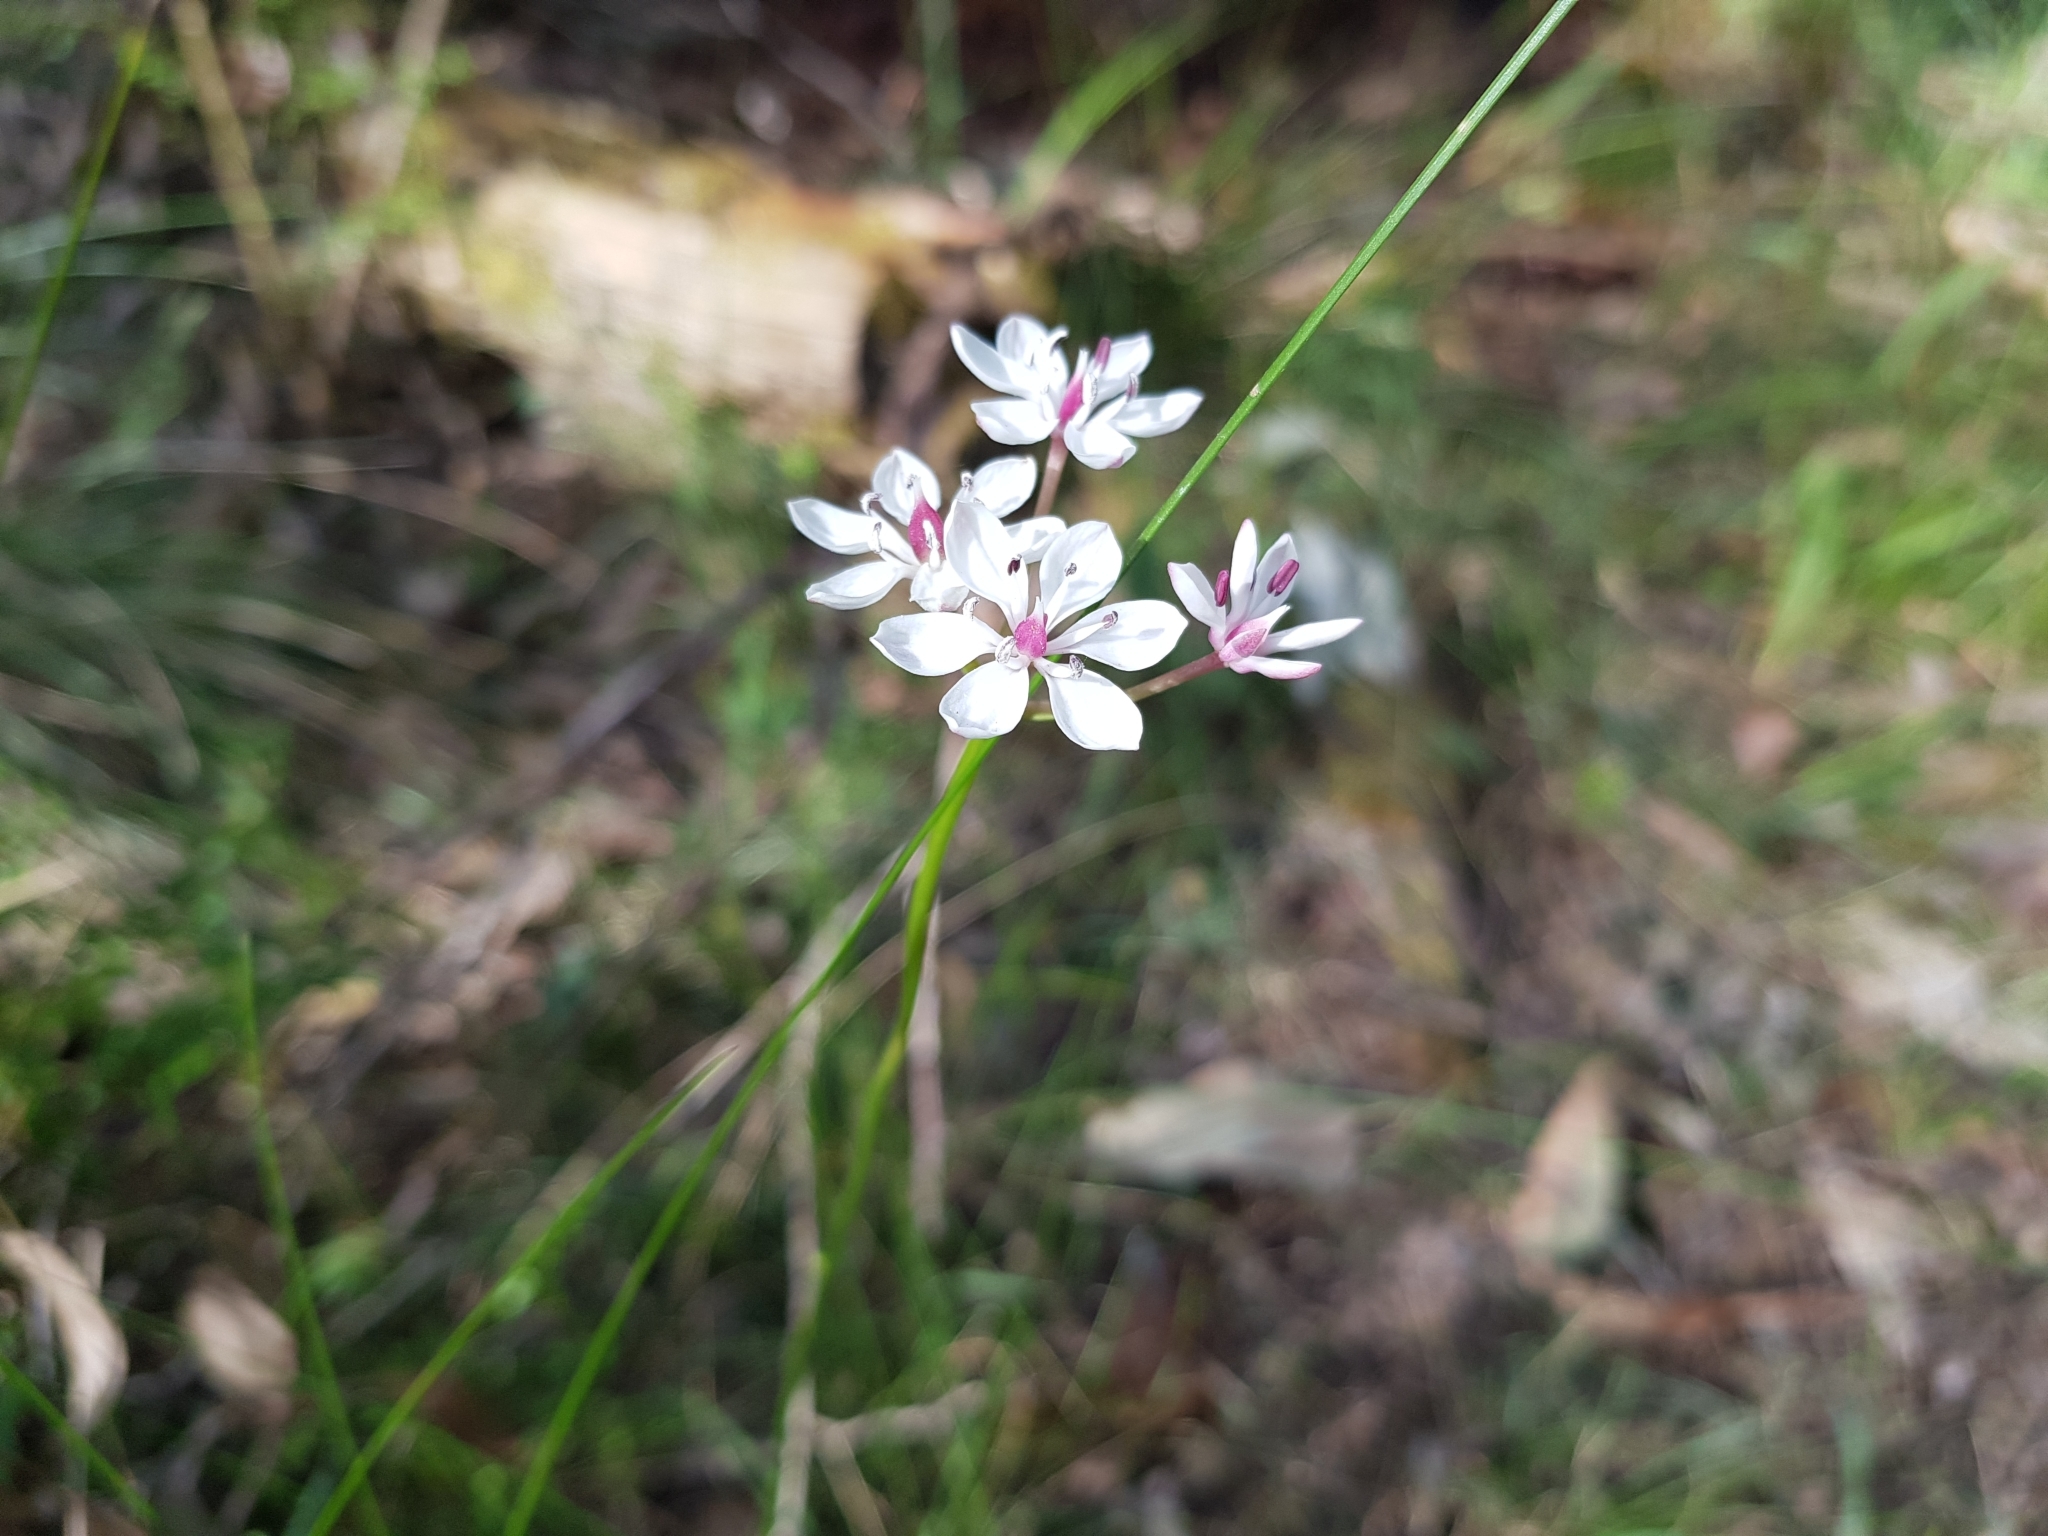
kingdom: Plantae
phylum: Tracheophyta
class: Liliopsida
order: Liliales
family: Colchicaceae
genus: Burchardia
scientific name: Burchardia umbellata
